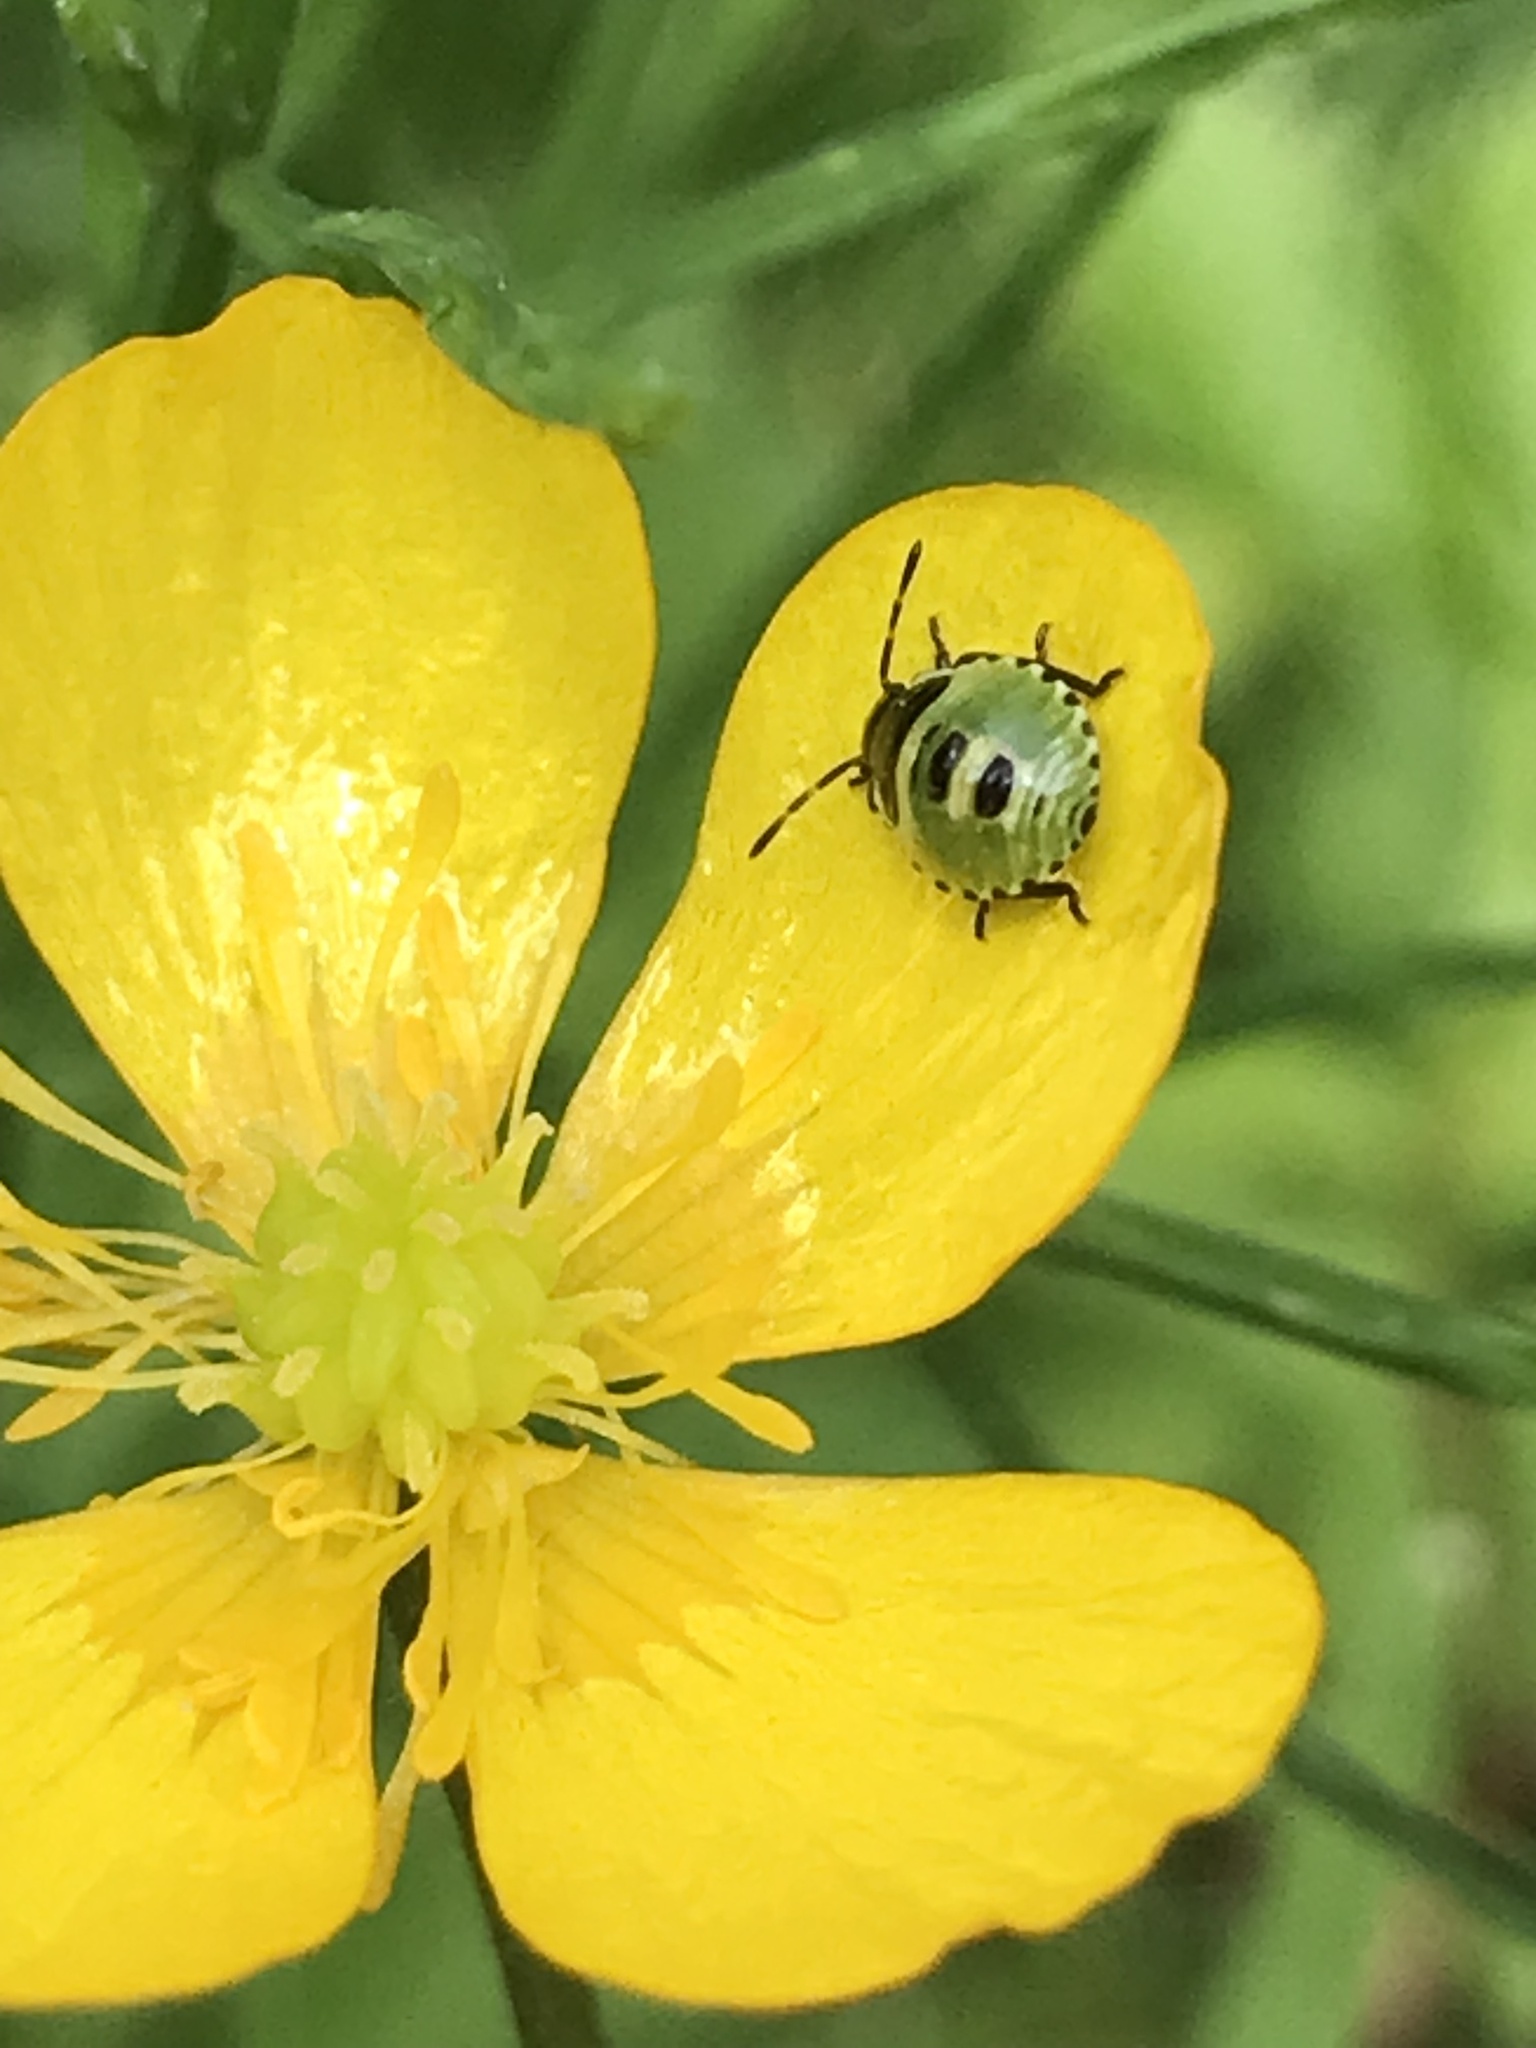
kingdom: Animalia
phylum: Arthropoda
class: Insecta
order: Hemiptera
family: Pentatomidae
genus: Palomena
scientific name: Palomena prasina
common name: Green shieldbug
